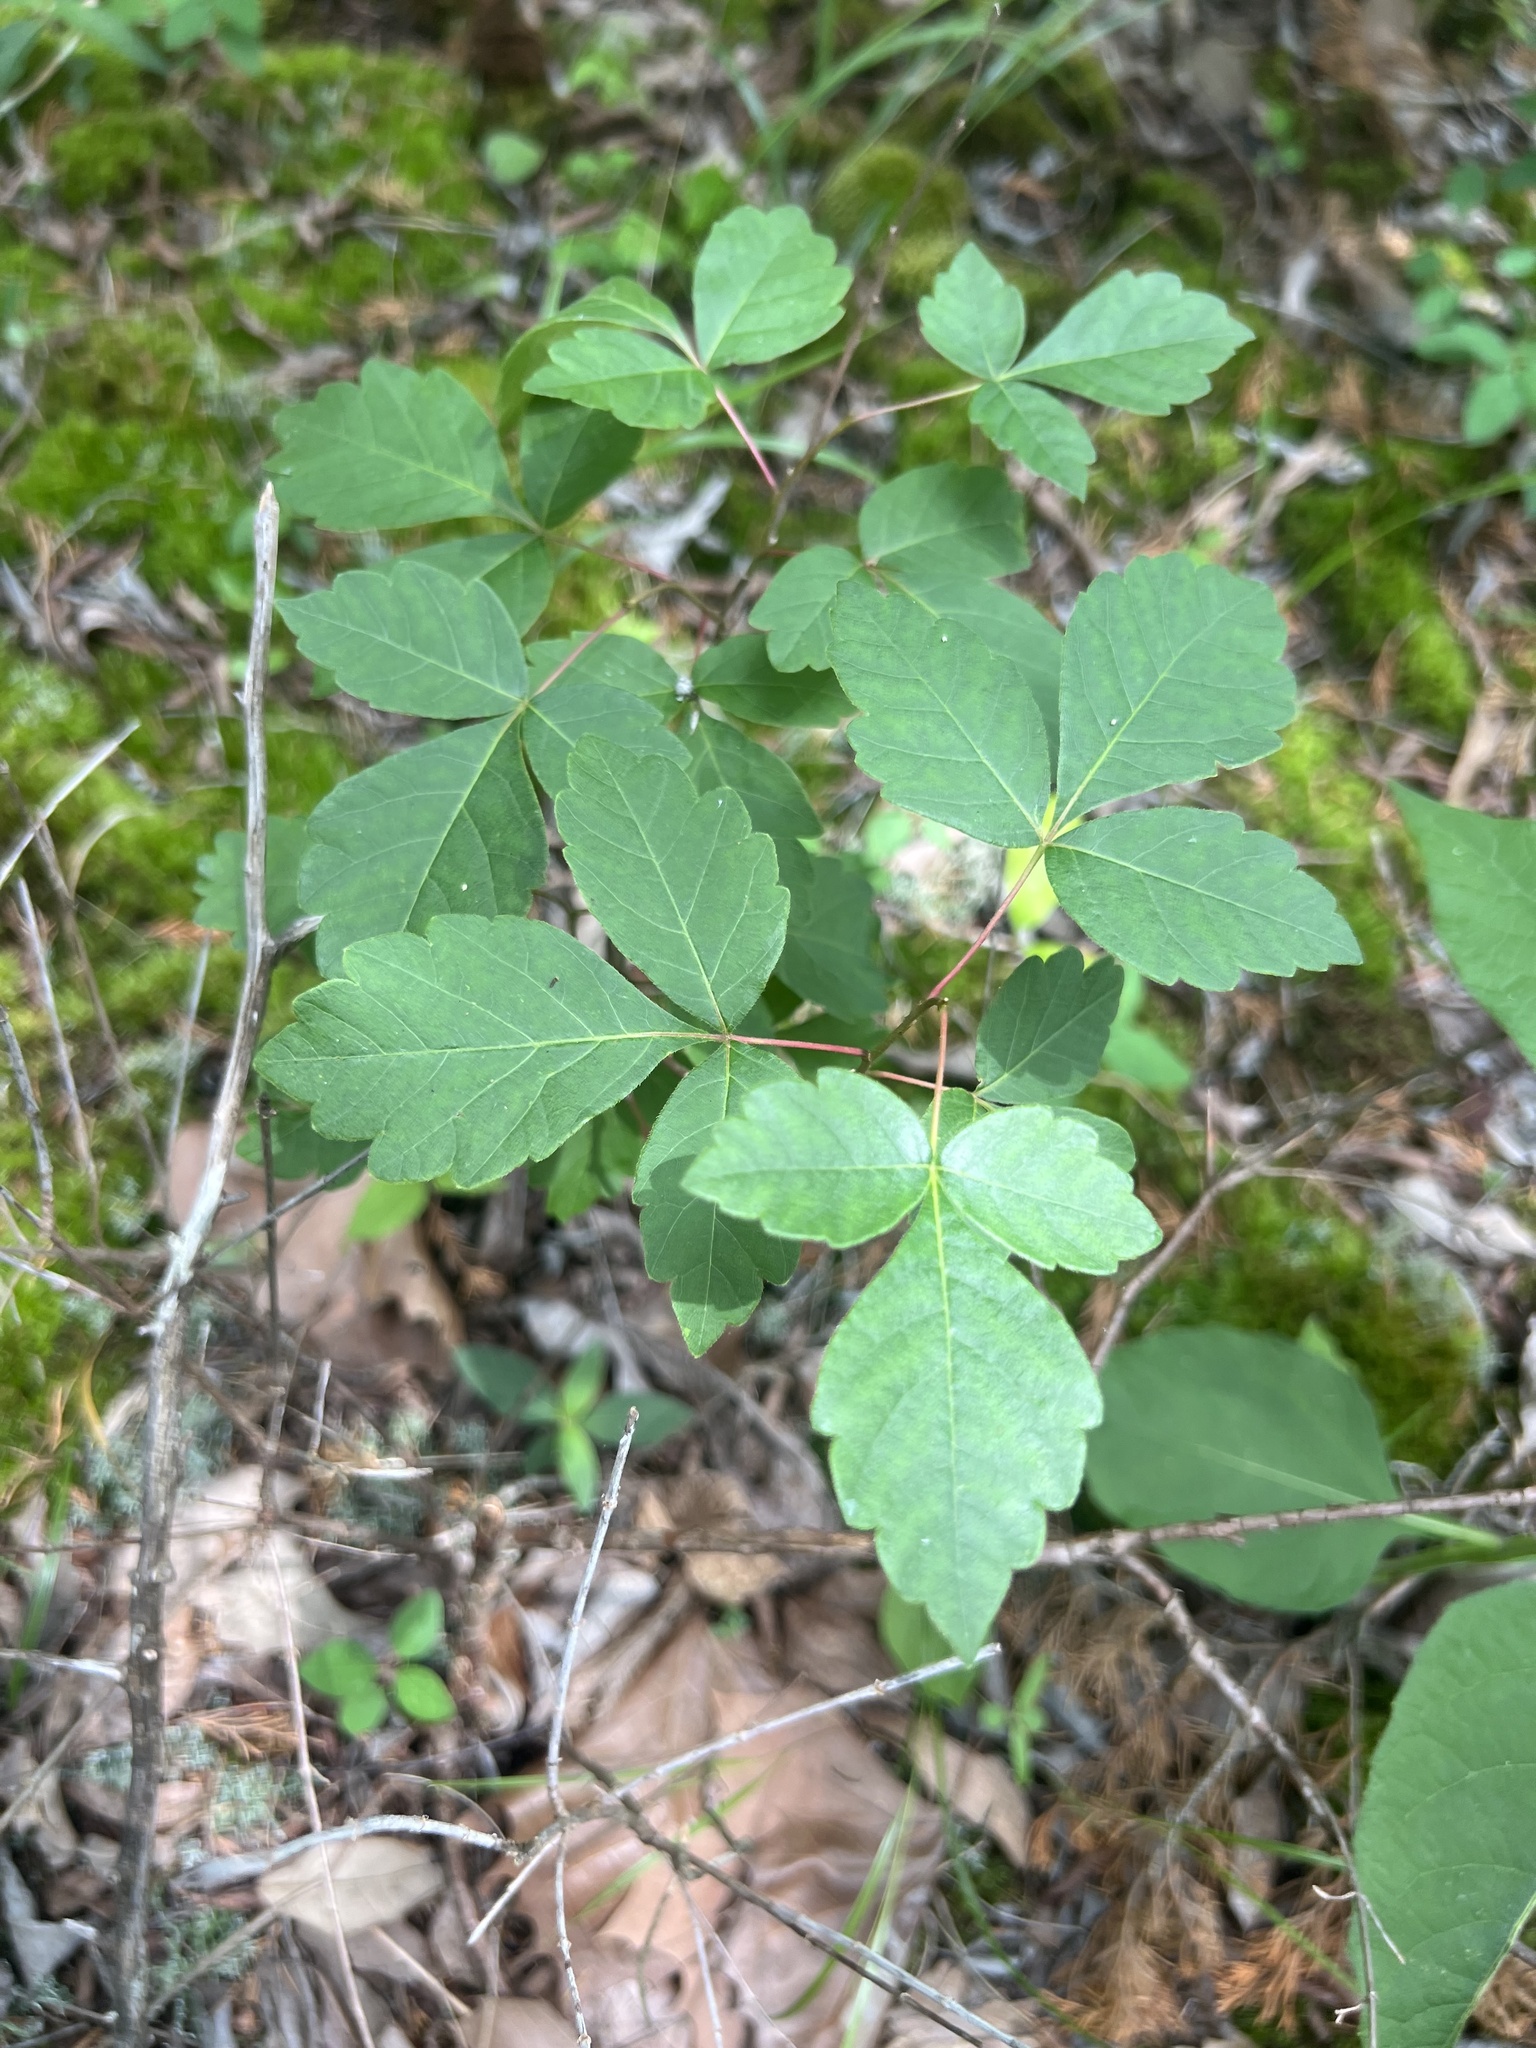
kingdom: Plantae
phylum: Tracheophyta
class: Magnoliopsida
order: Sapindales
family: Anacardiaceae
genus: Rhus
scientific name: Rhus aromatica
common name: Aromatic sumac
